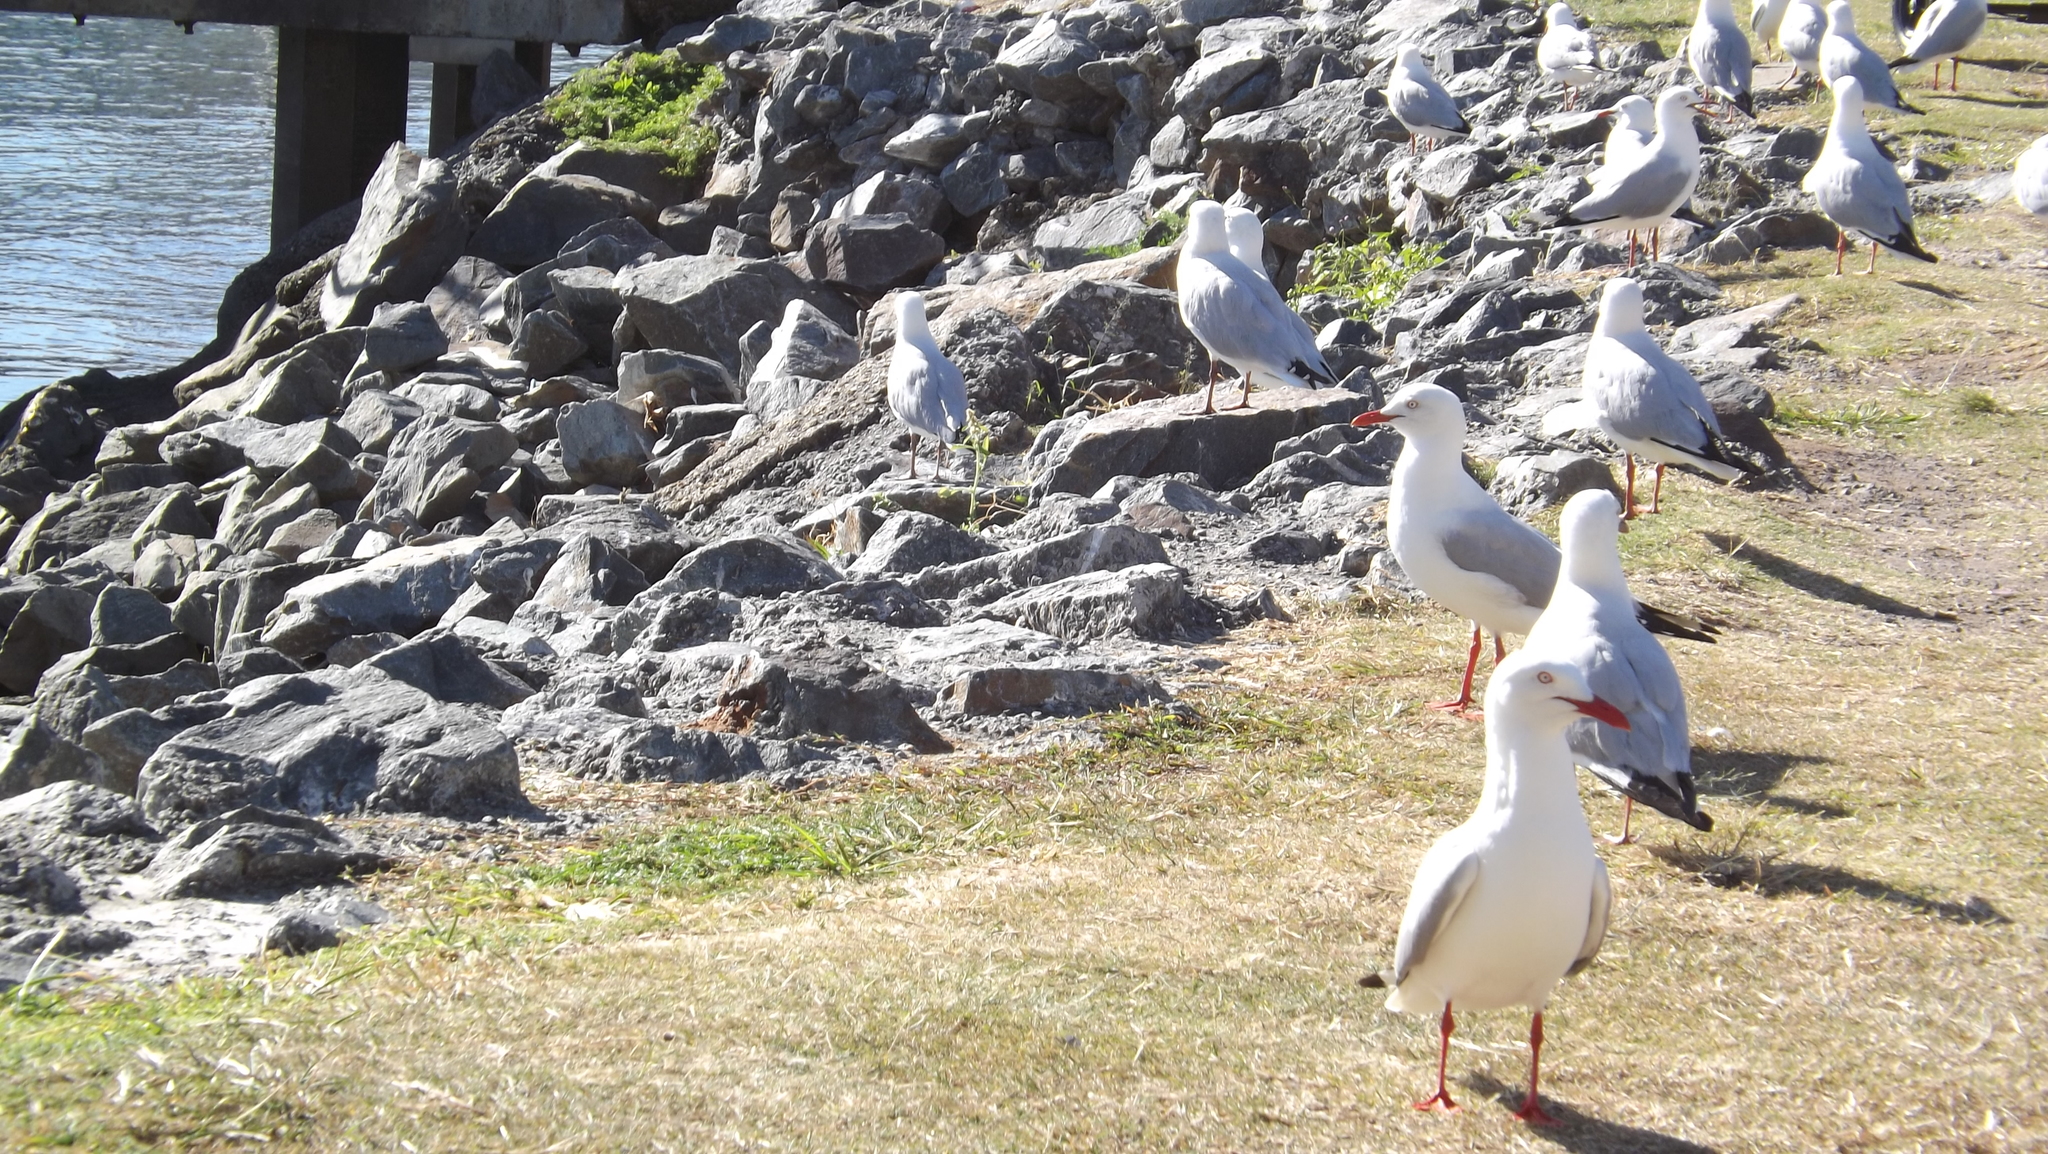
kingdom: Animalia
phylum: Chordata
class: Aves
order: Charadriiformes
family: Laridae
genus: Chroicocephalus
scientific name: Chroicocephalus novaehollandiae
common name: Silver gull
